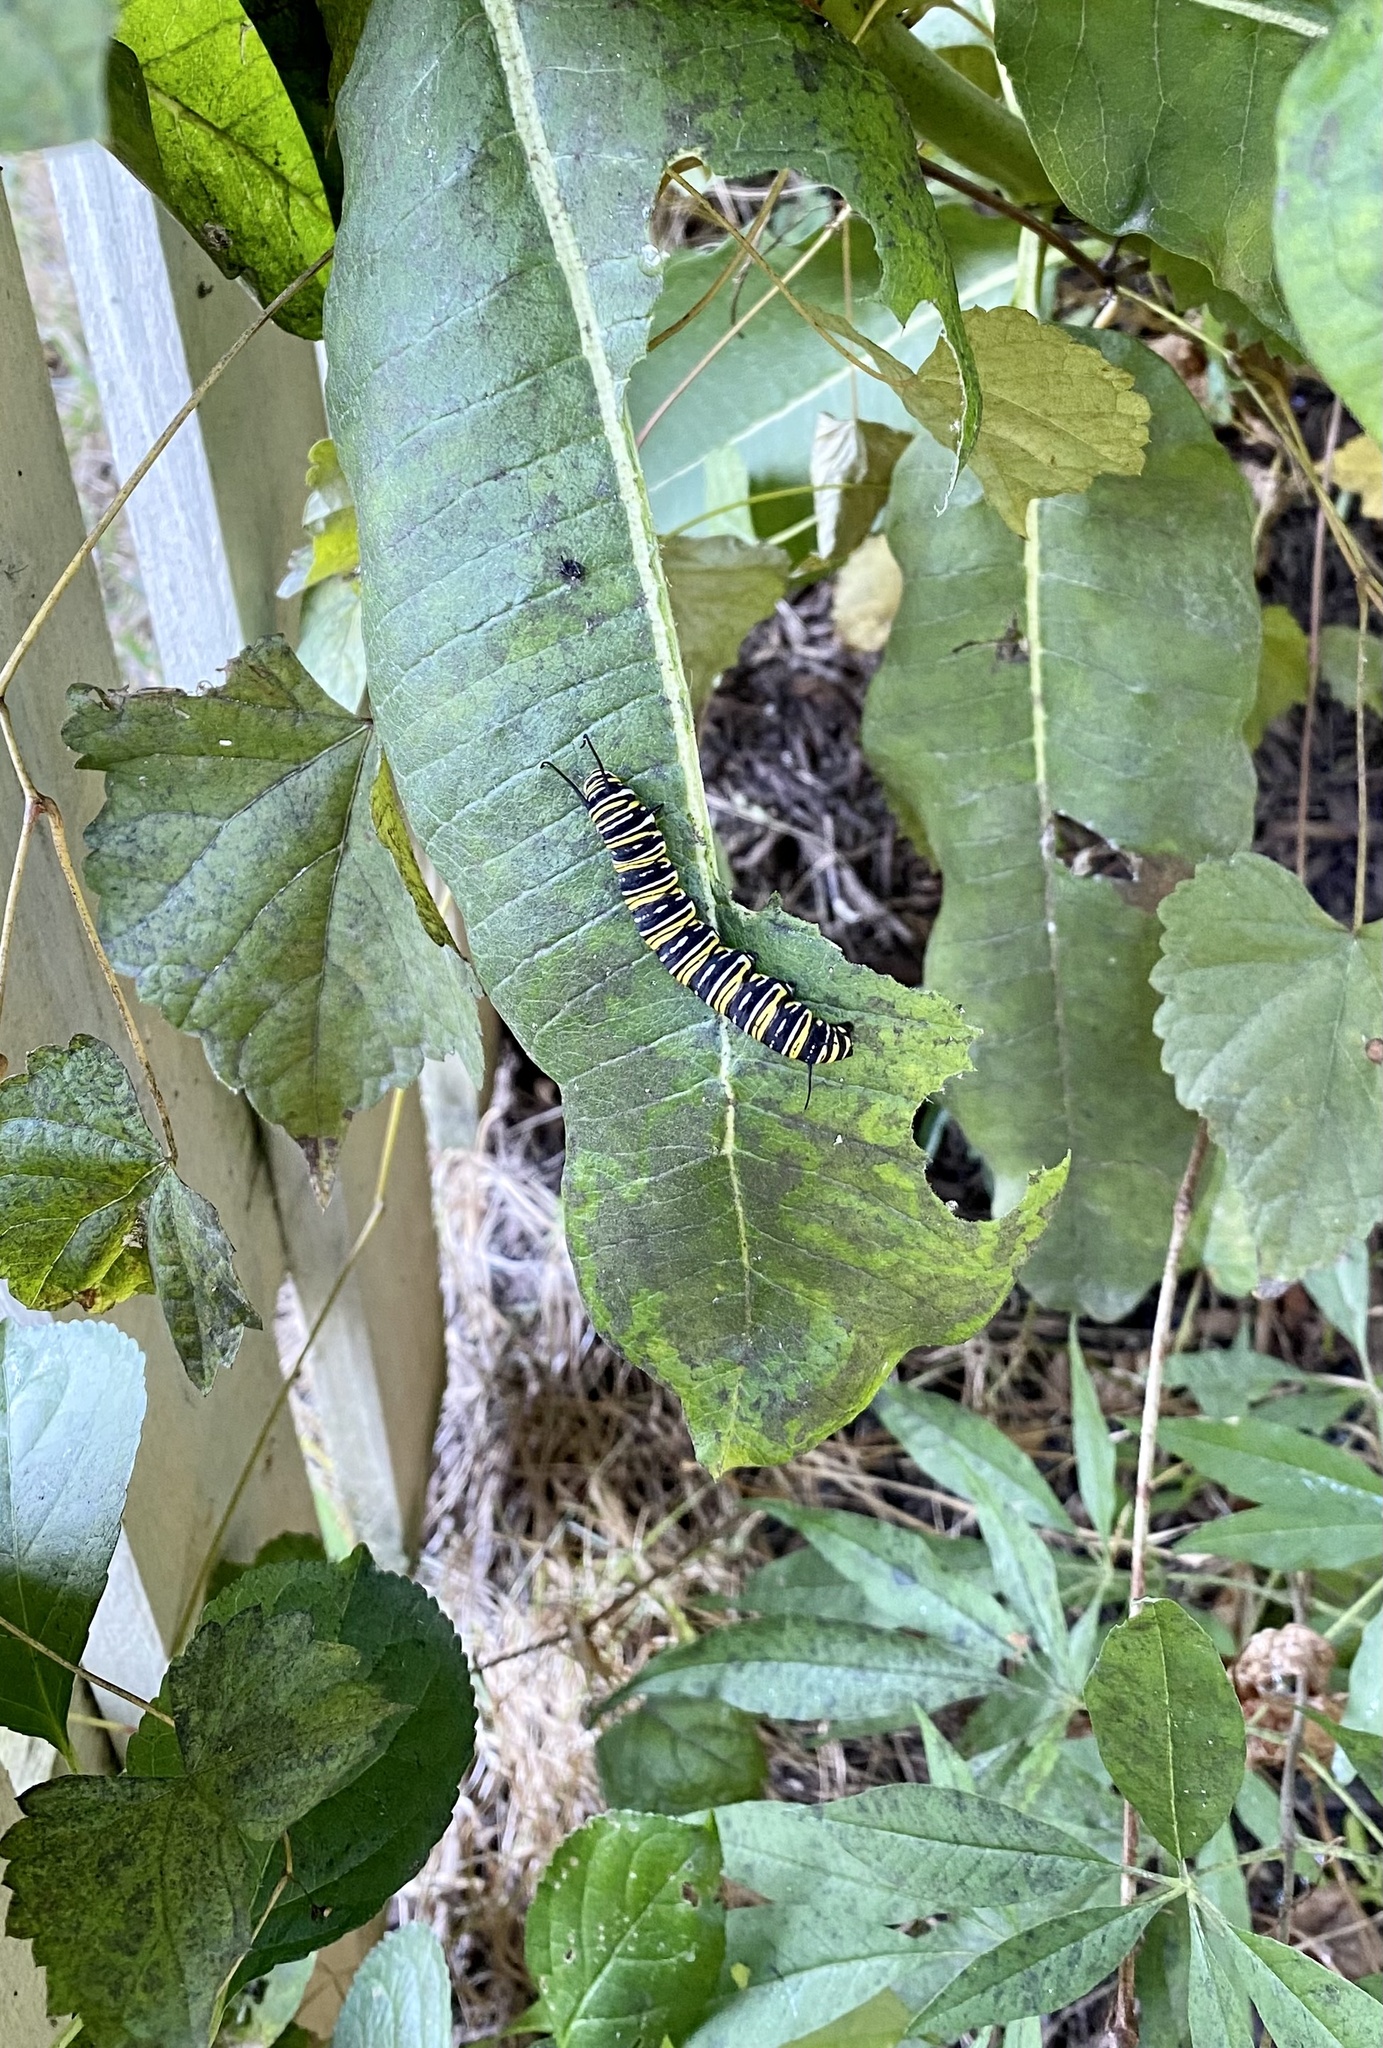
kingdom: Animalia
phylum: Arthropoda
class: Insecta
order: Lepidoptera
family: Nymphalidae
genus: Danaus
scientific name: Danaus plexippus
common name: Monarch
